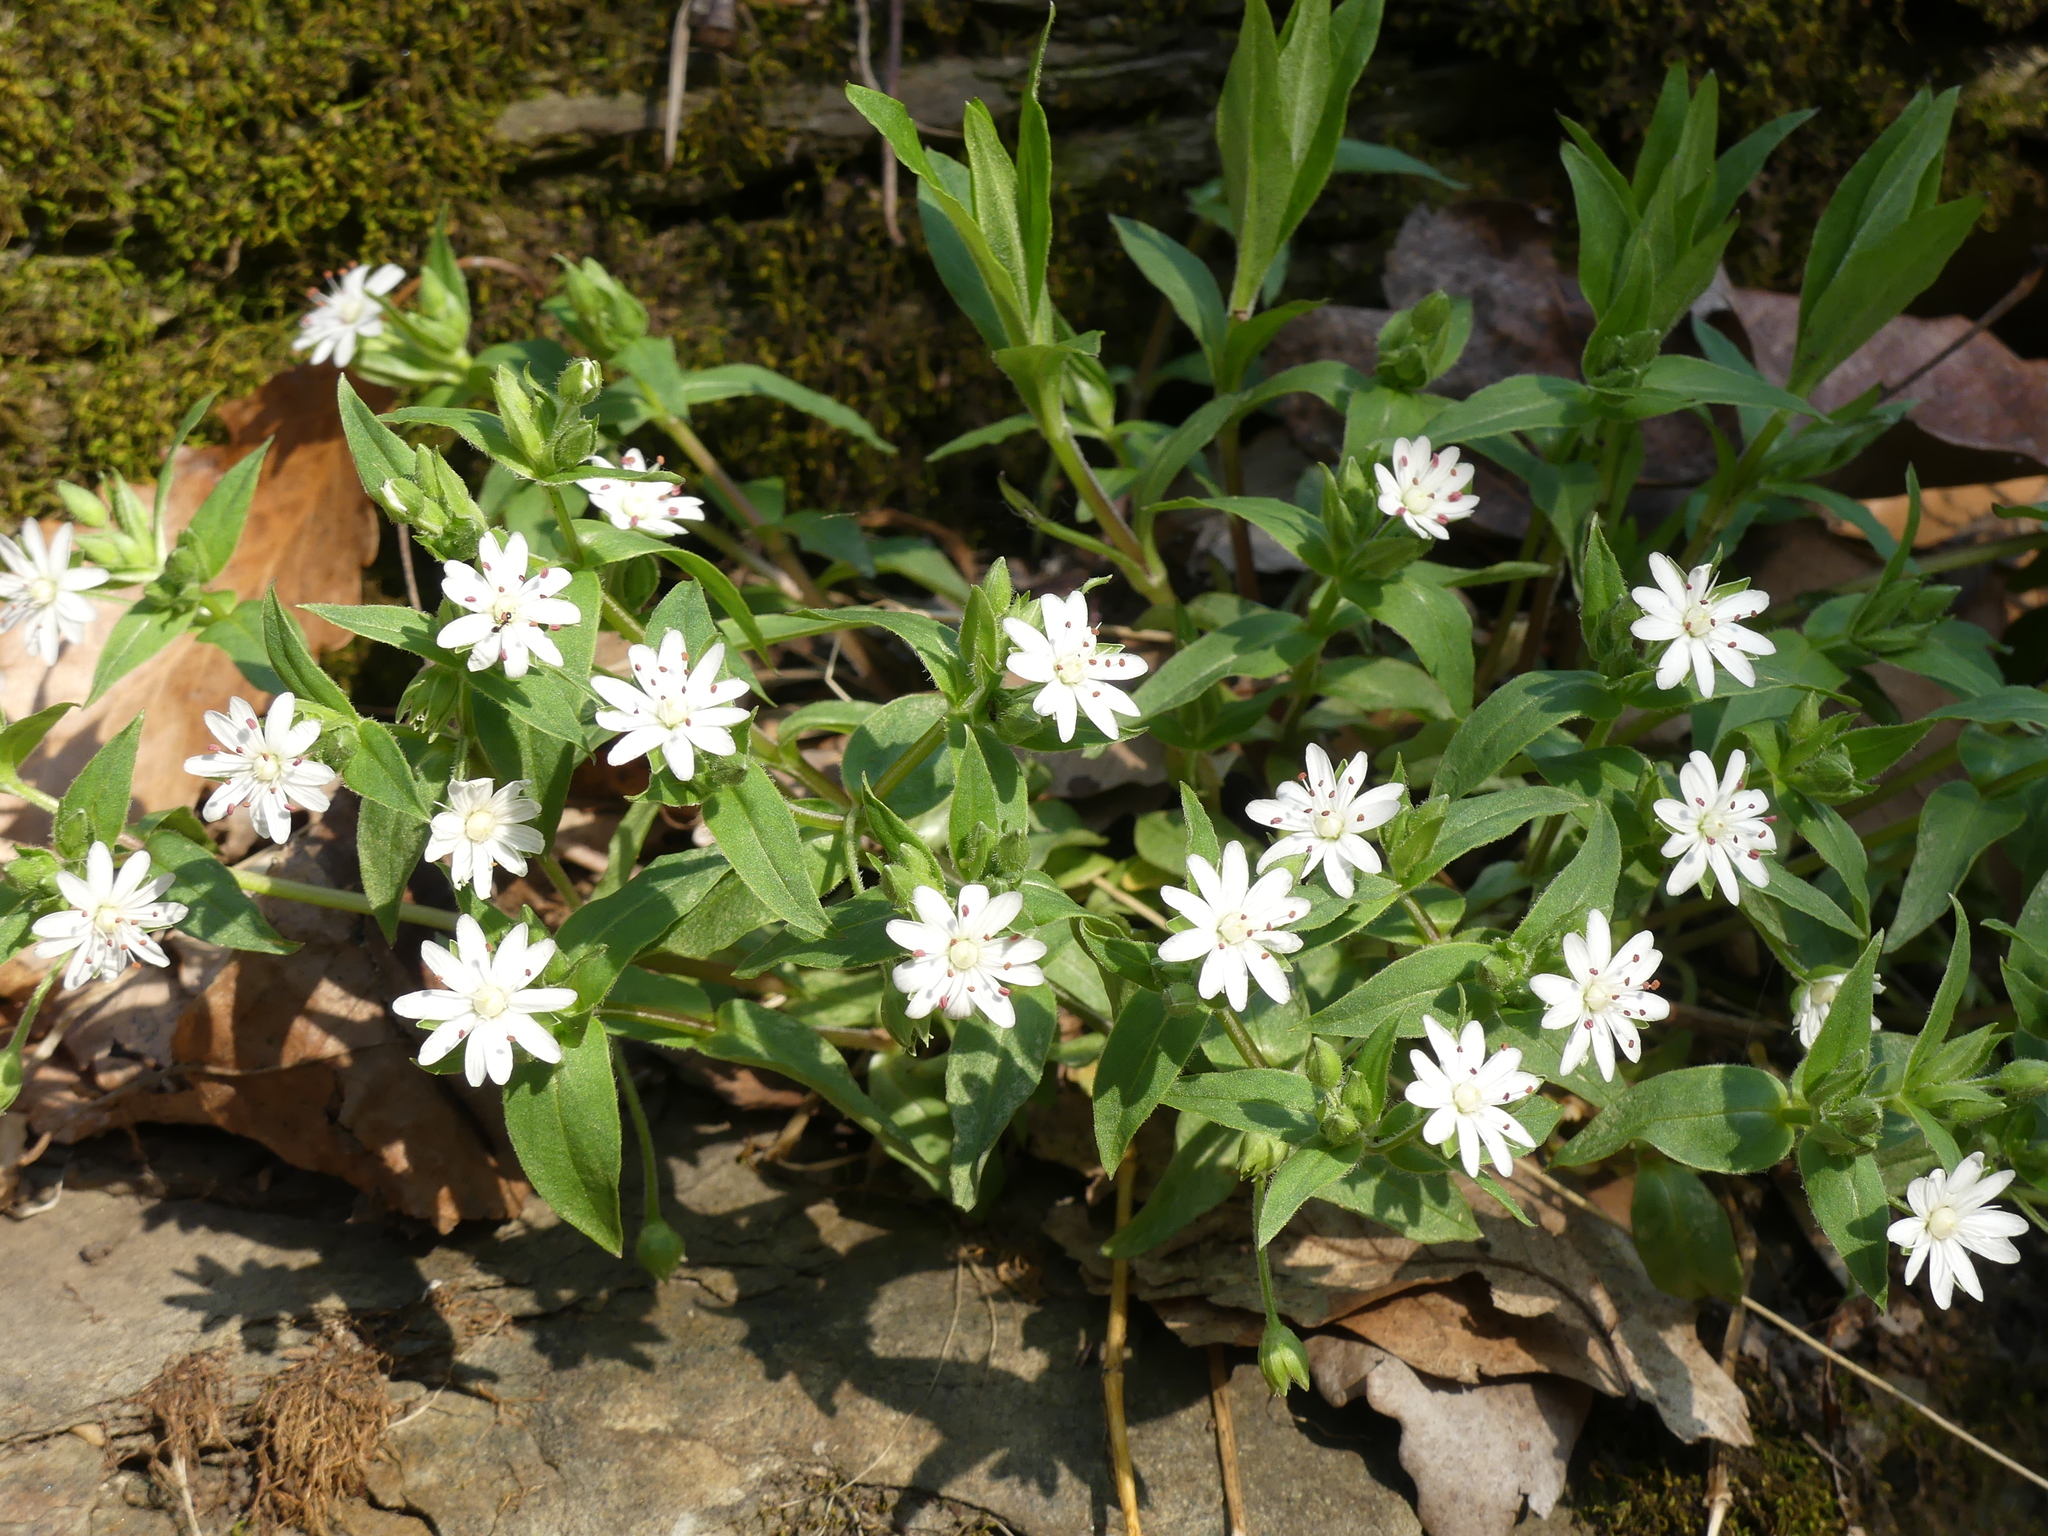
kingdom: Plantae
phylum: Tracheophyta
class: Magnoliopsida
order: Caryophyllales
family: Caryophyllaceae
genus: Stellaria
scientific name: Stellaria pubera
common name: Star chickweed
